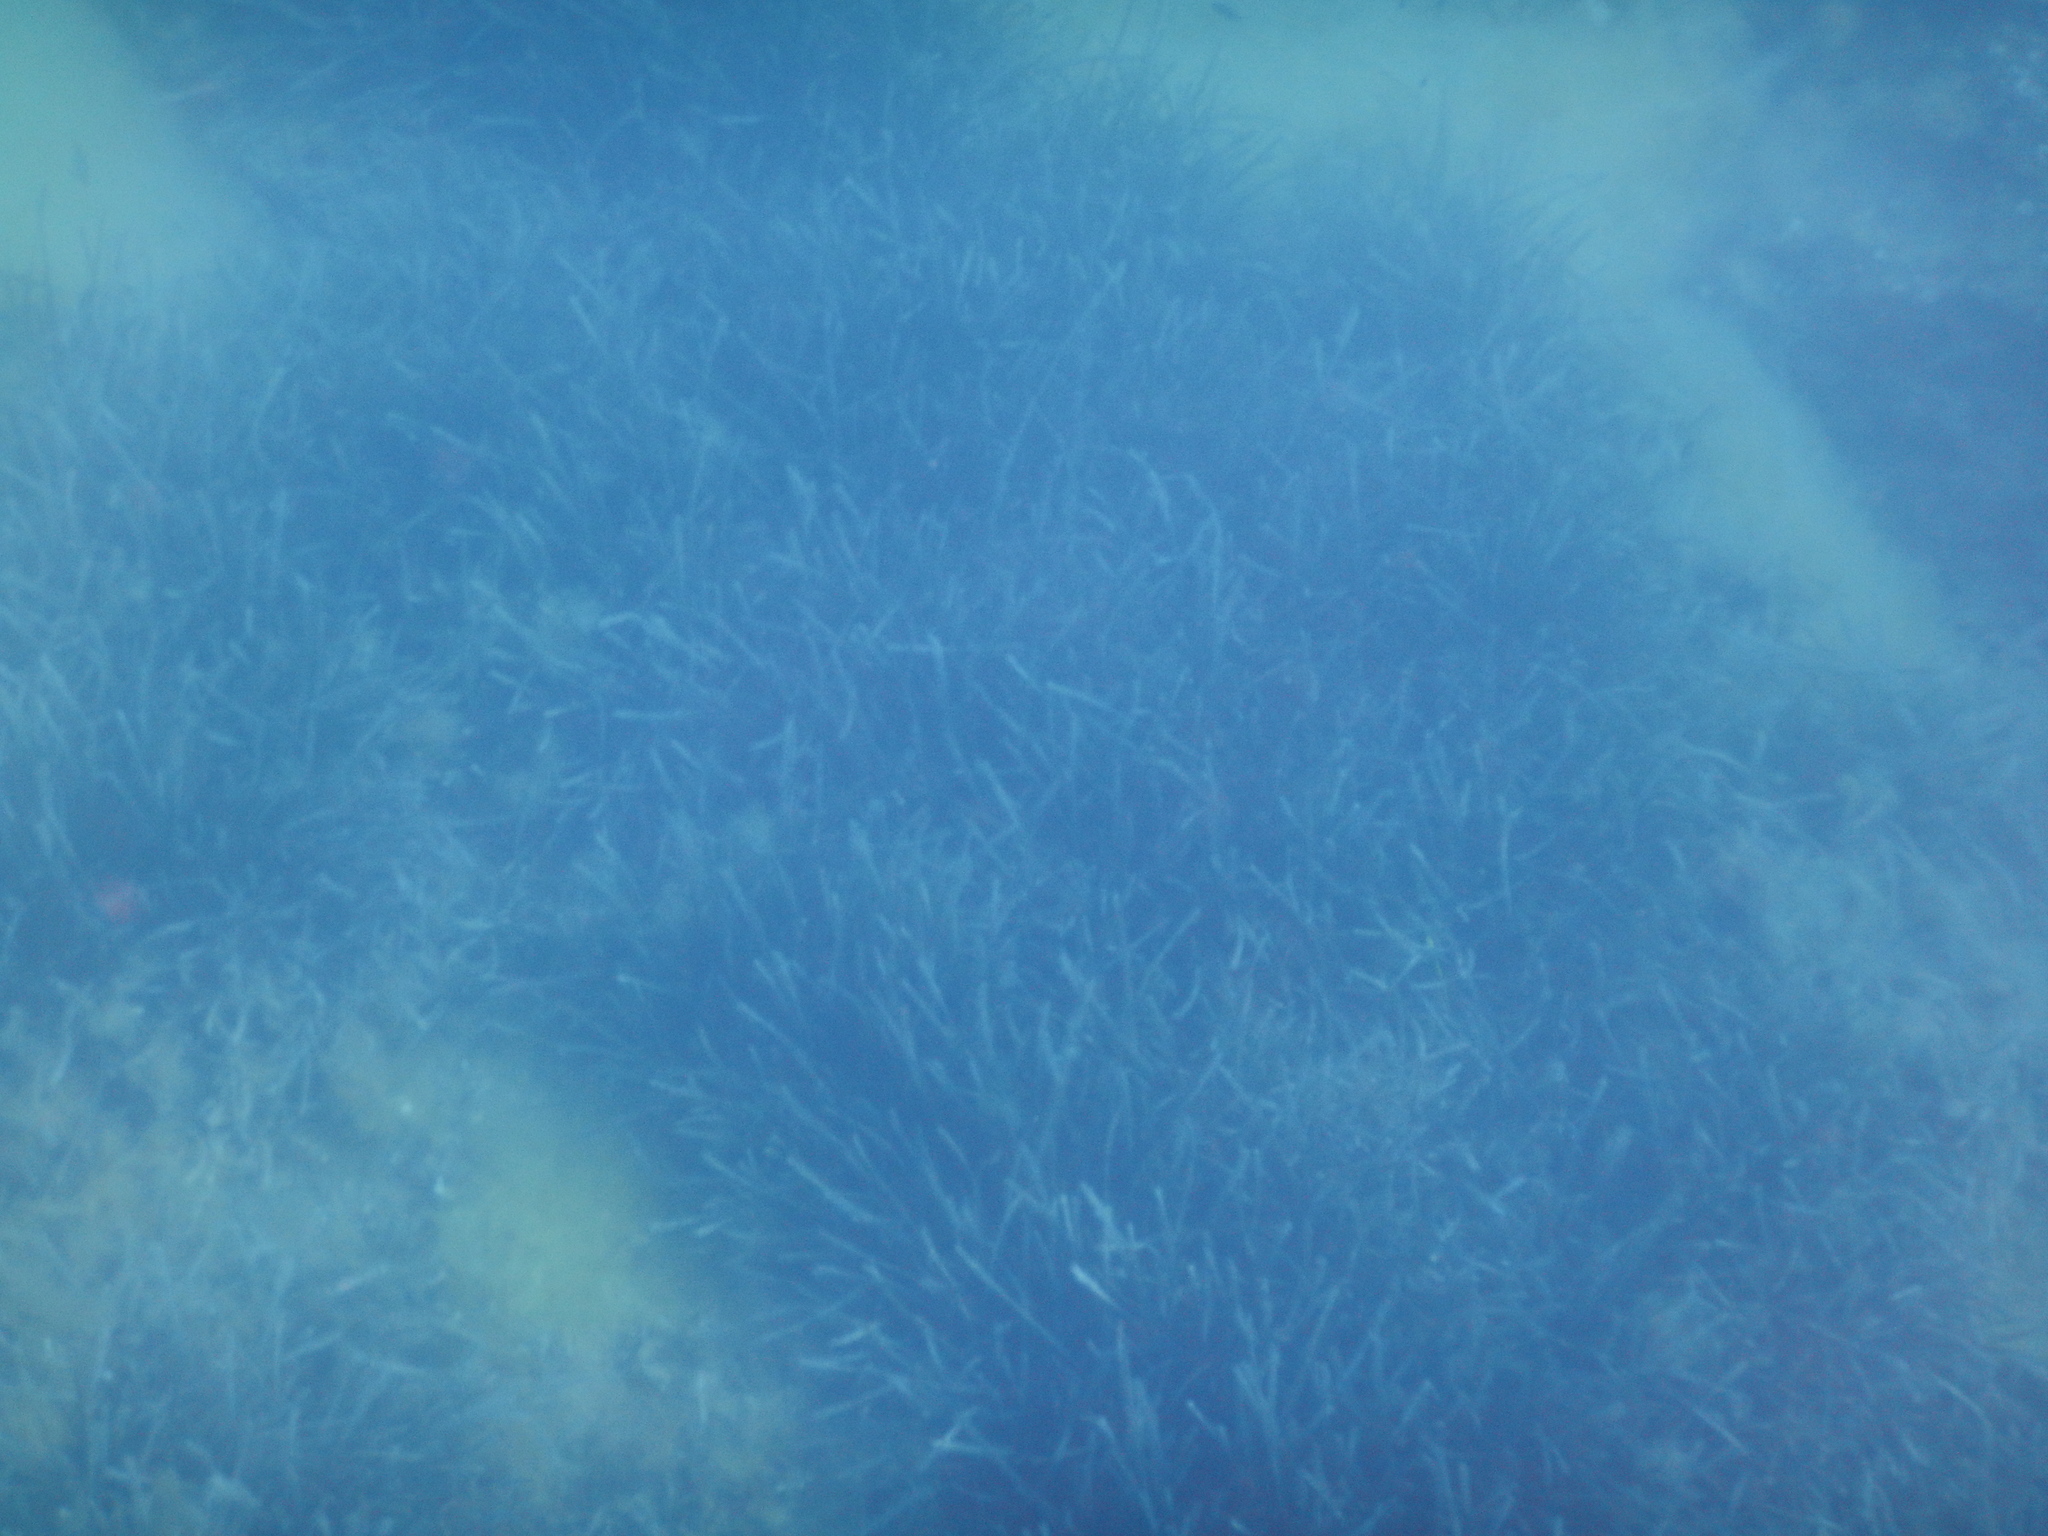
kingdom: Plantae
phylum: Tracheophyta
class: Liliopsida
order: Alismatales
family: Posidoniaceae
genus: Posidonia
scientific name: Posidonia oceanica
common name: Mediterranean tapeweed
